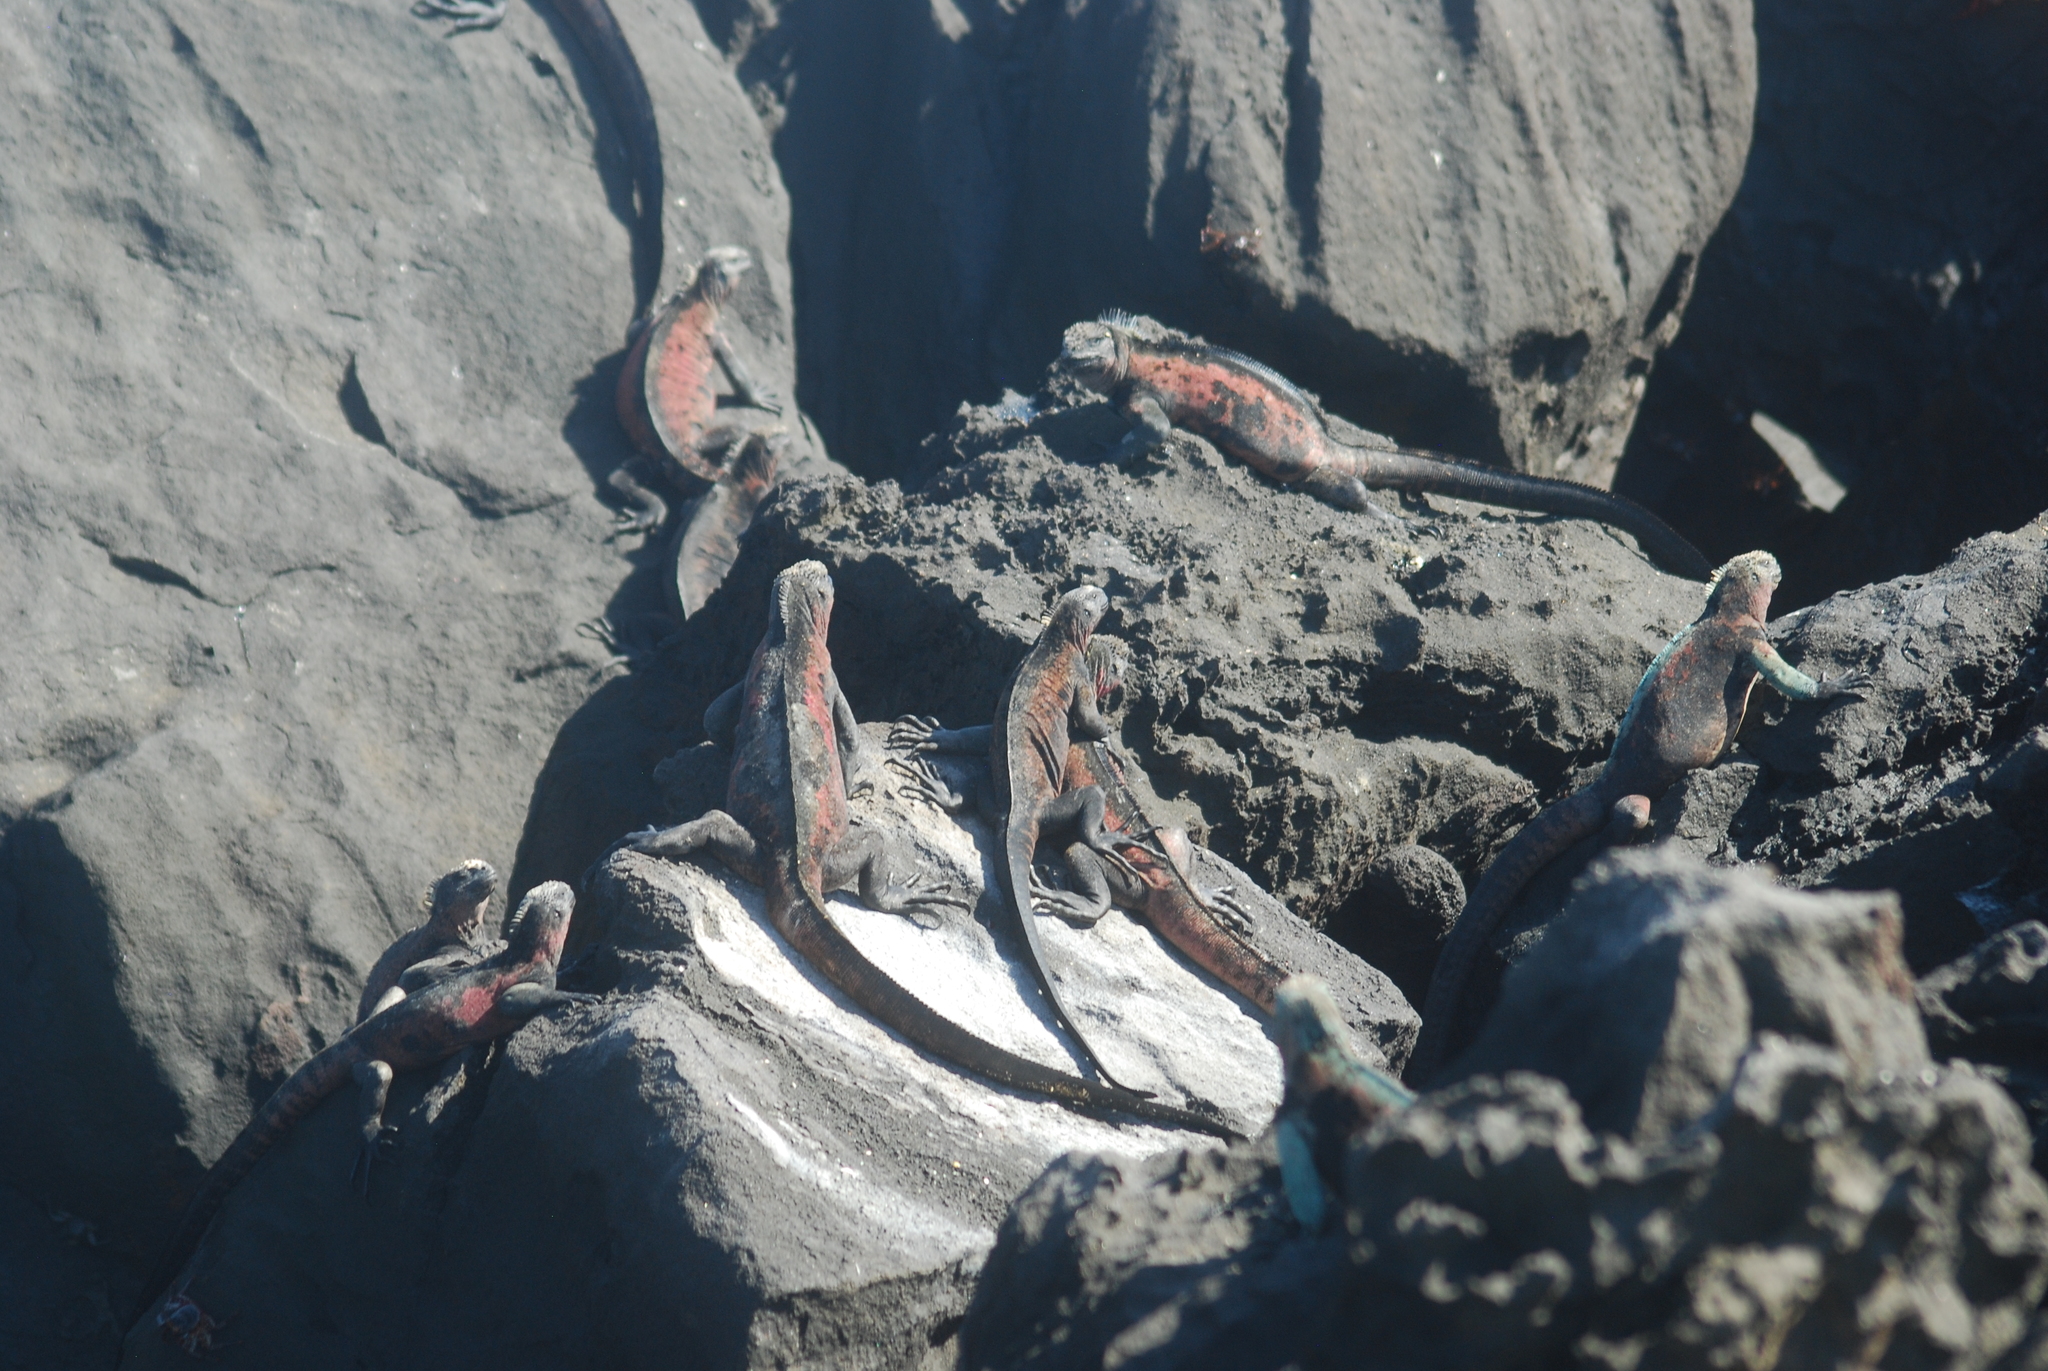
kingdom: Animalia
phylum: Chordata
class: Squamata
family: Iguanidae
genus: Amblyrhynchus
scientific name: Amblyrhynchus cristatus
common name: Marine iguana
